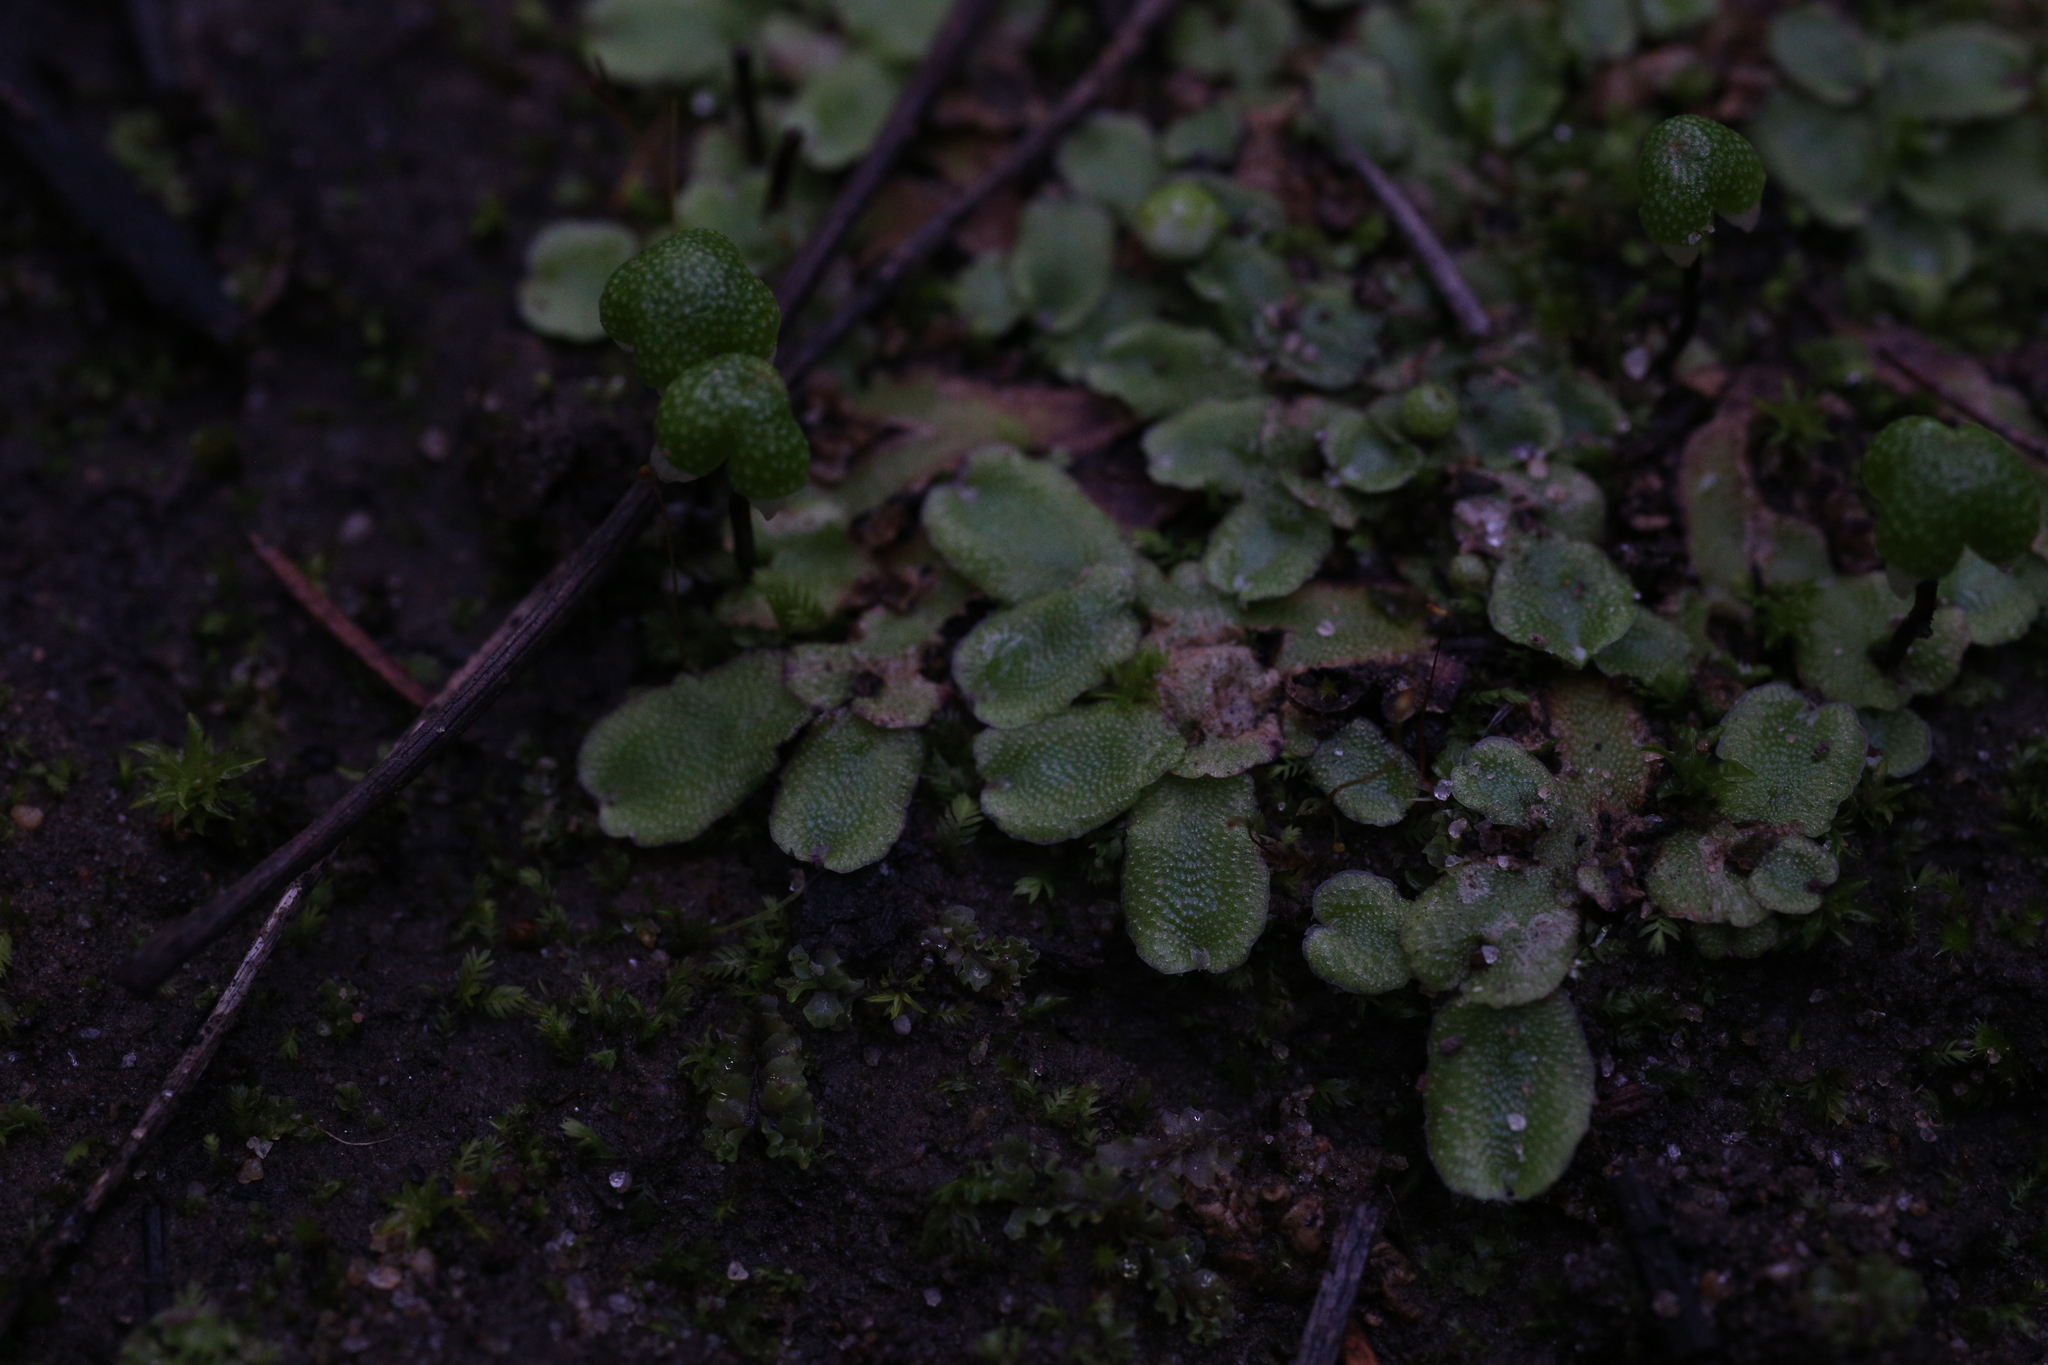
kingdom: Plantae
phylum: Marchantiophyta
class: Marchantiopsida
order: Marchantiales
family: Aytoniaceae
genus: Asterella
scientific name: Asterella drummondii
